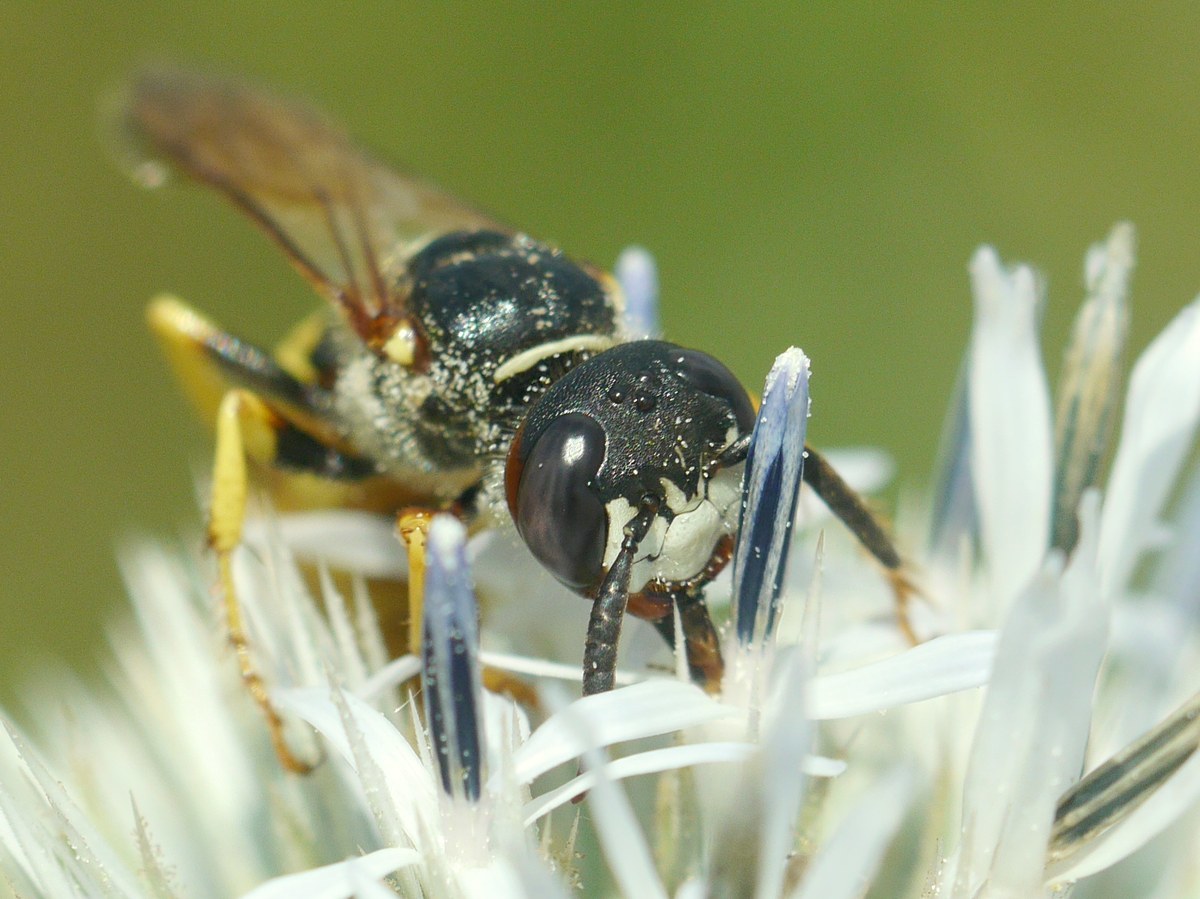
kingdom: Animalia
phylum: Arthropoda
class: Insecta
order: Hymenoptera
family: Crabronidae
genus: Philanthus
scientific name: Philanthus triangulum
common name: Bee wolf
